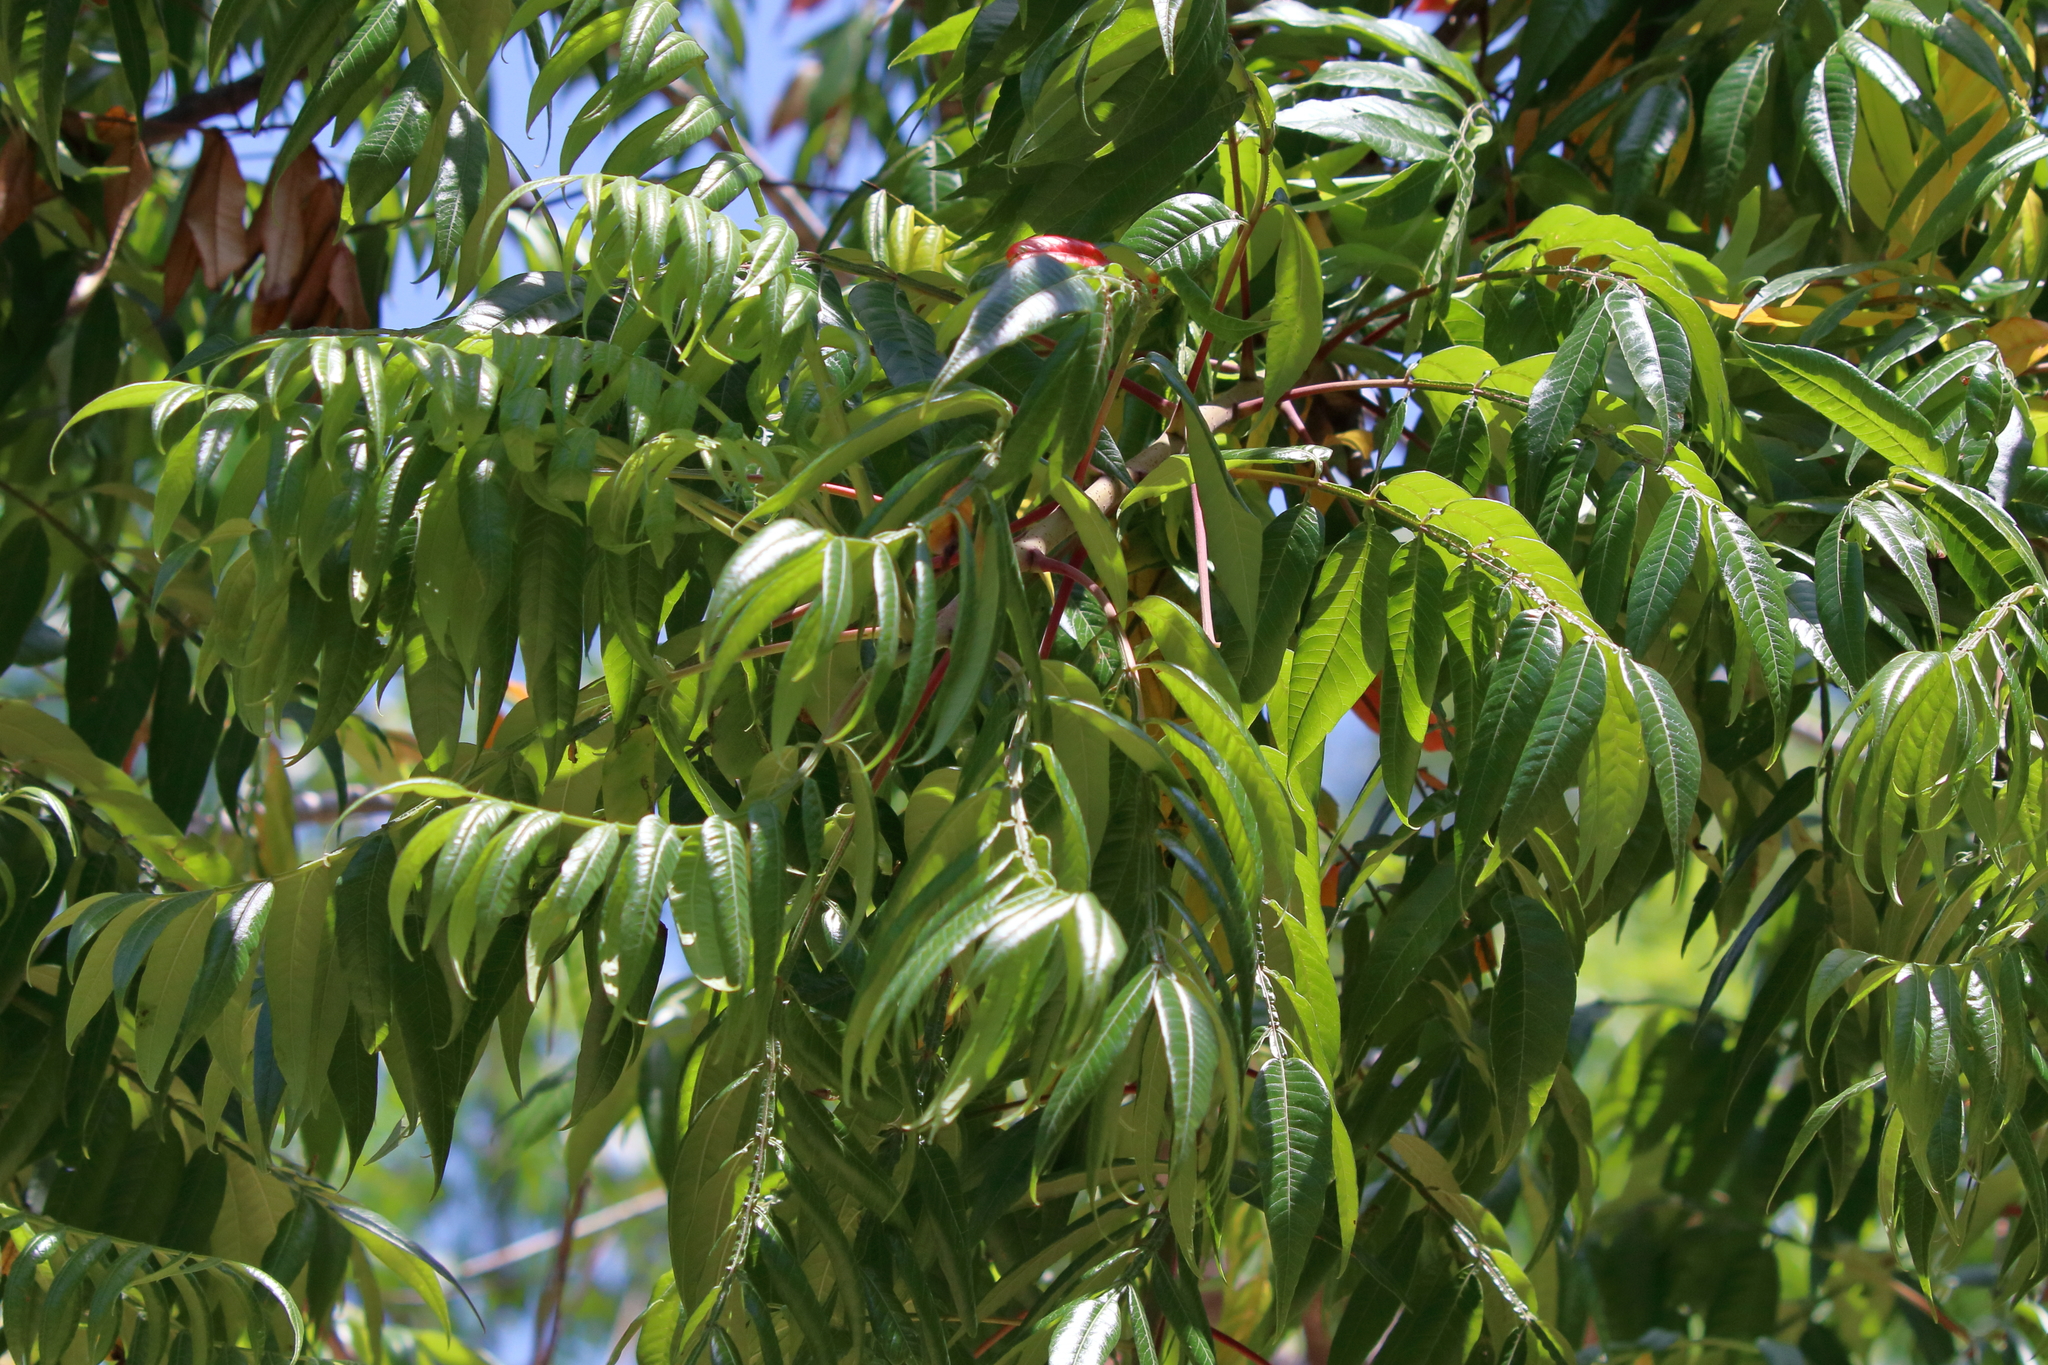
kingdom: Plantae
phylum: Tracheophyta
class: Magnoliopsida
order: Sapindales
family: Anacardiaceae
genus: Rhus
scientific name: Rhus copallina
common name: Shining sumac
